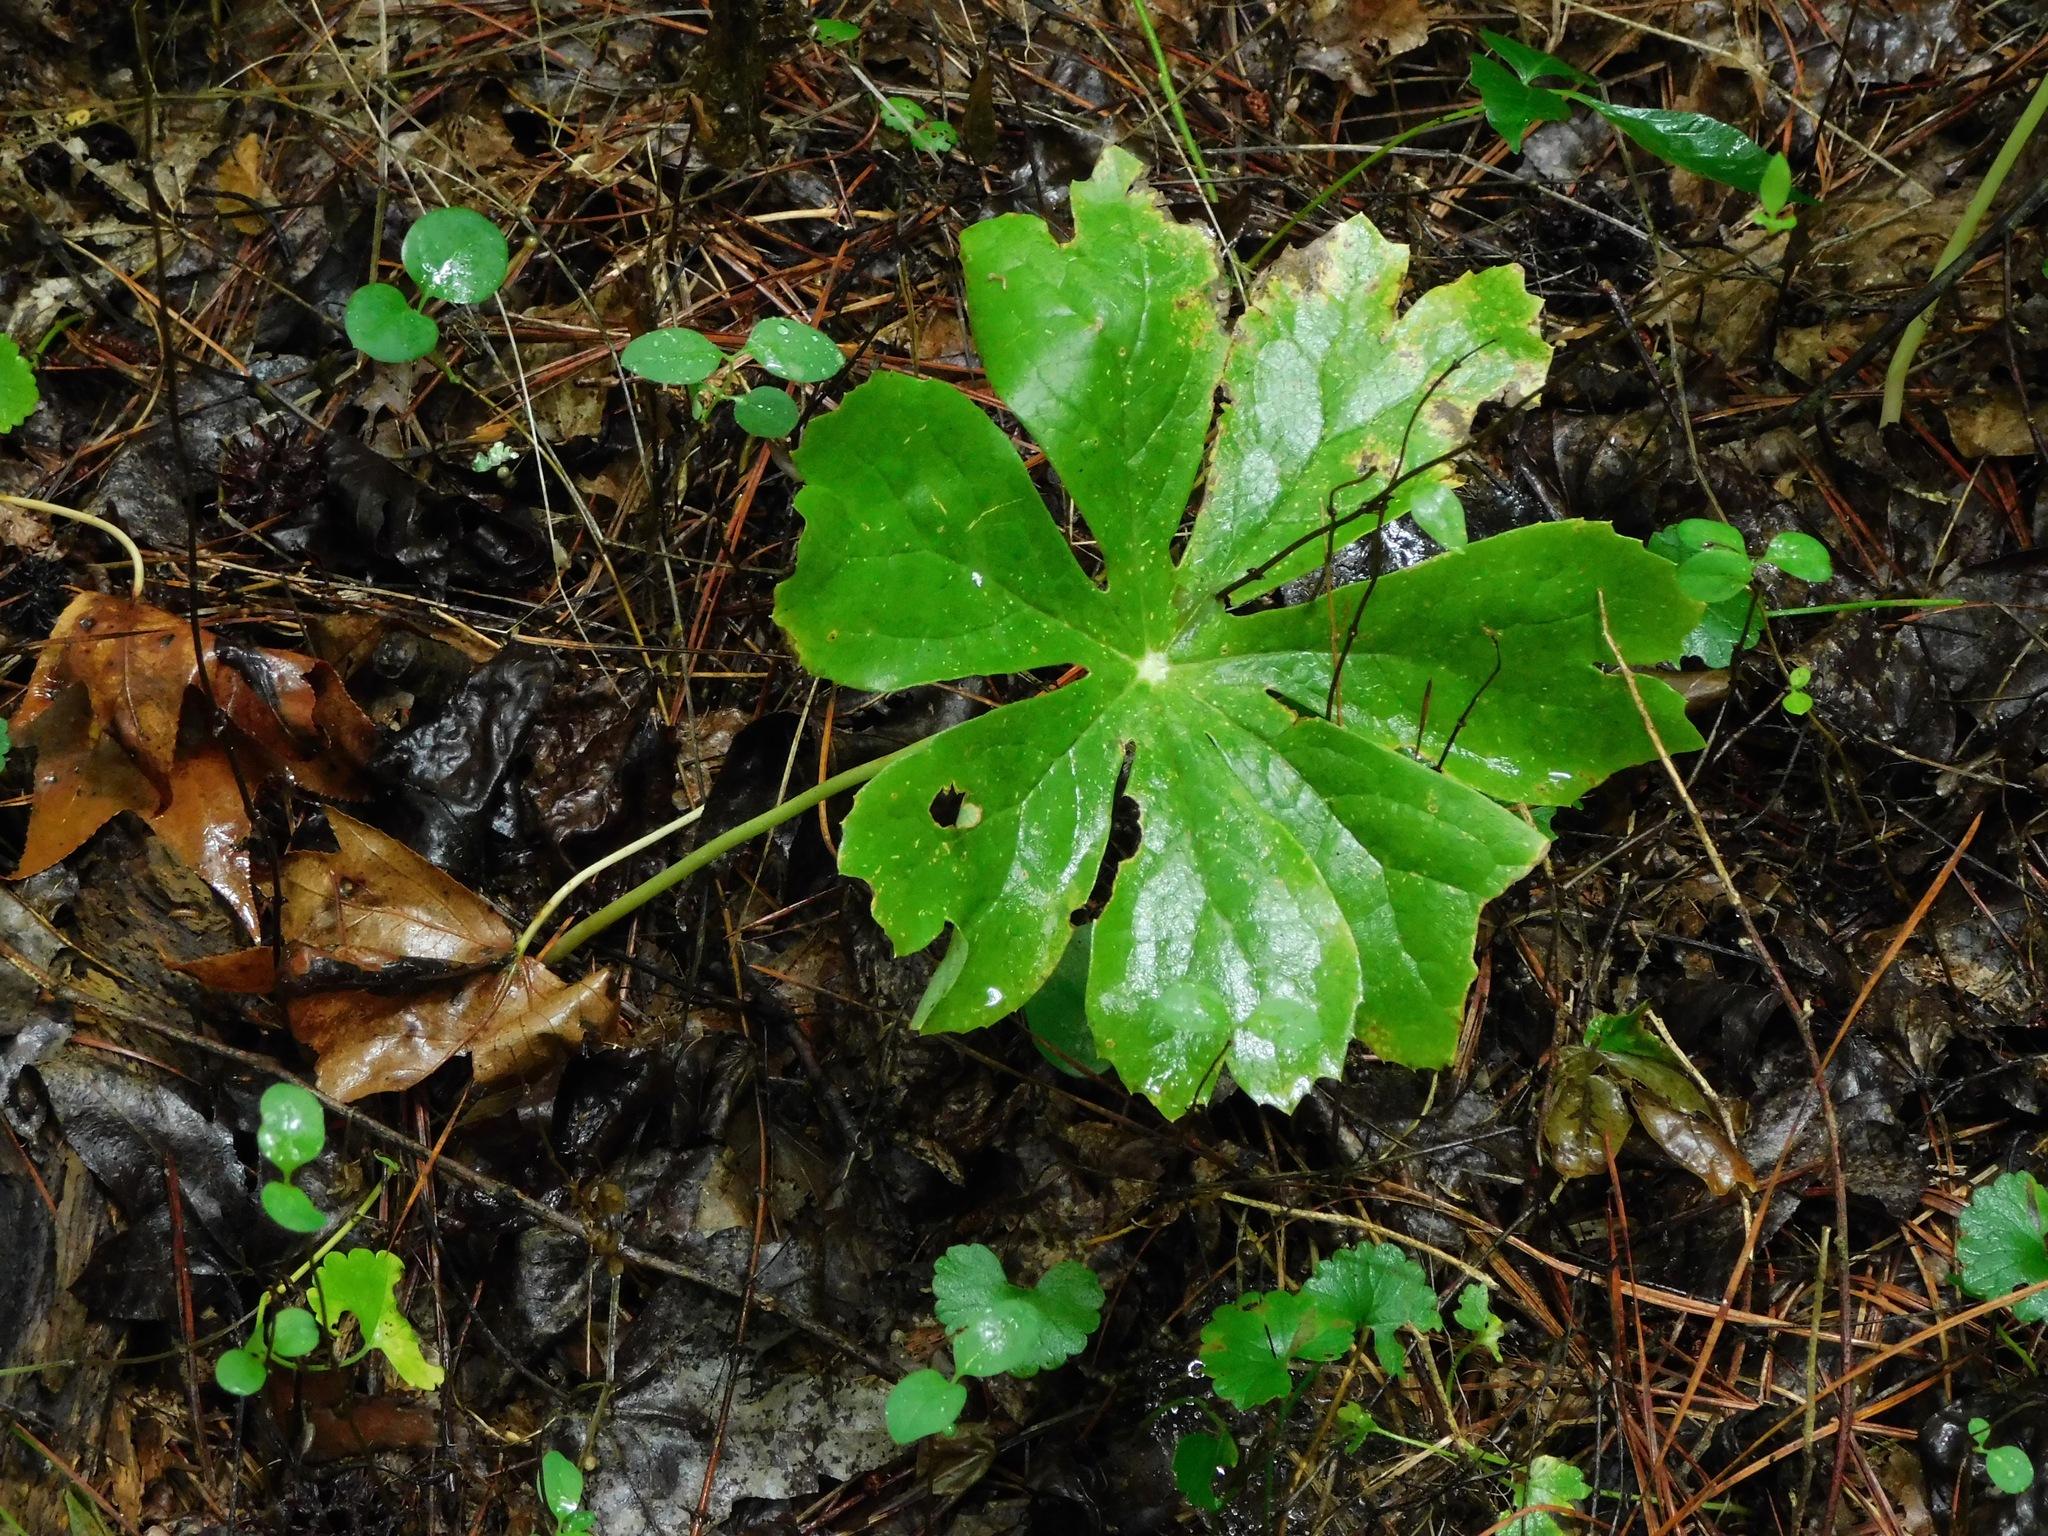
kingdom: Plantae
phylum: Tracheophyta
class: Magnoliopsida
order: Ranunculales
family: Berberidaceae
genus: Podophyllum
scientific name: Podophyllum peltatum
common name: Wild mandrake
